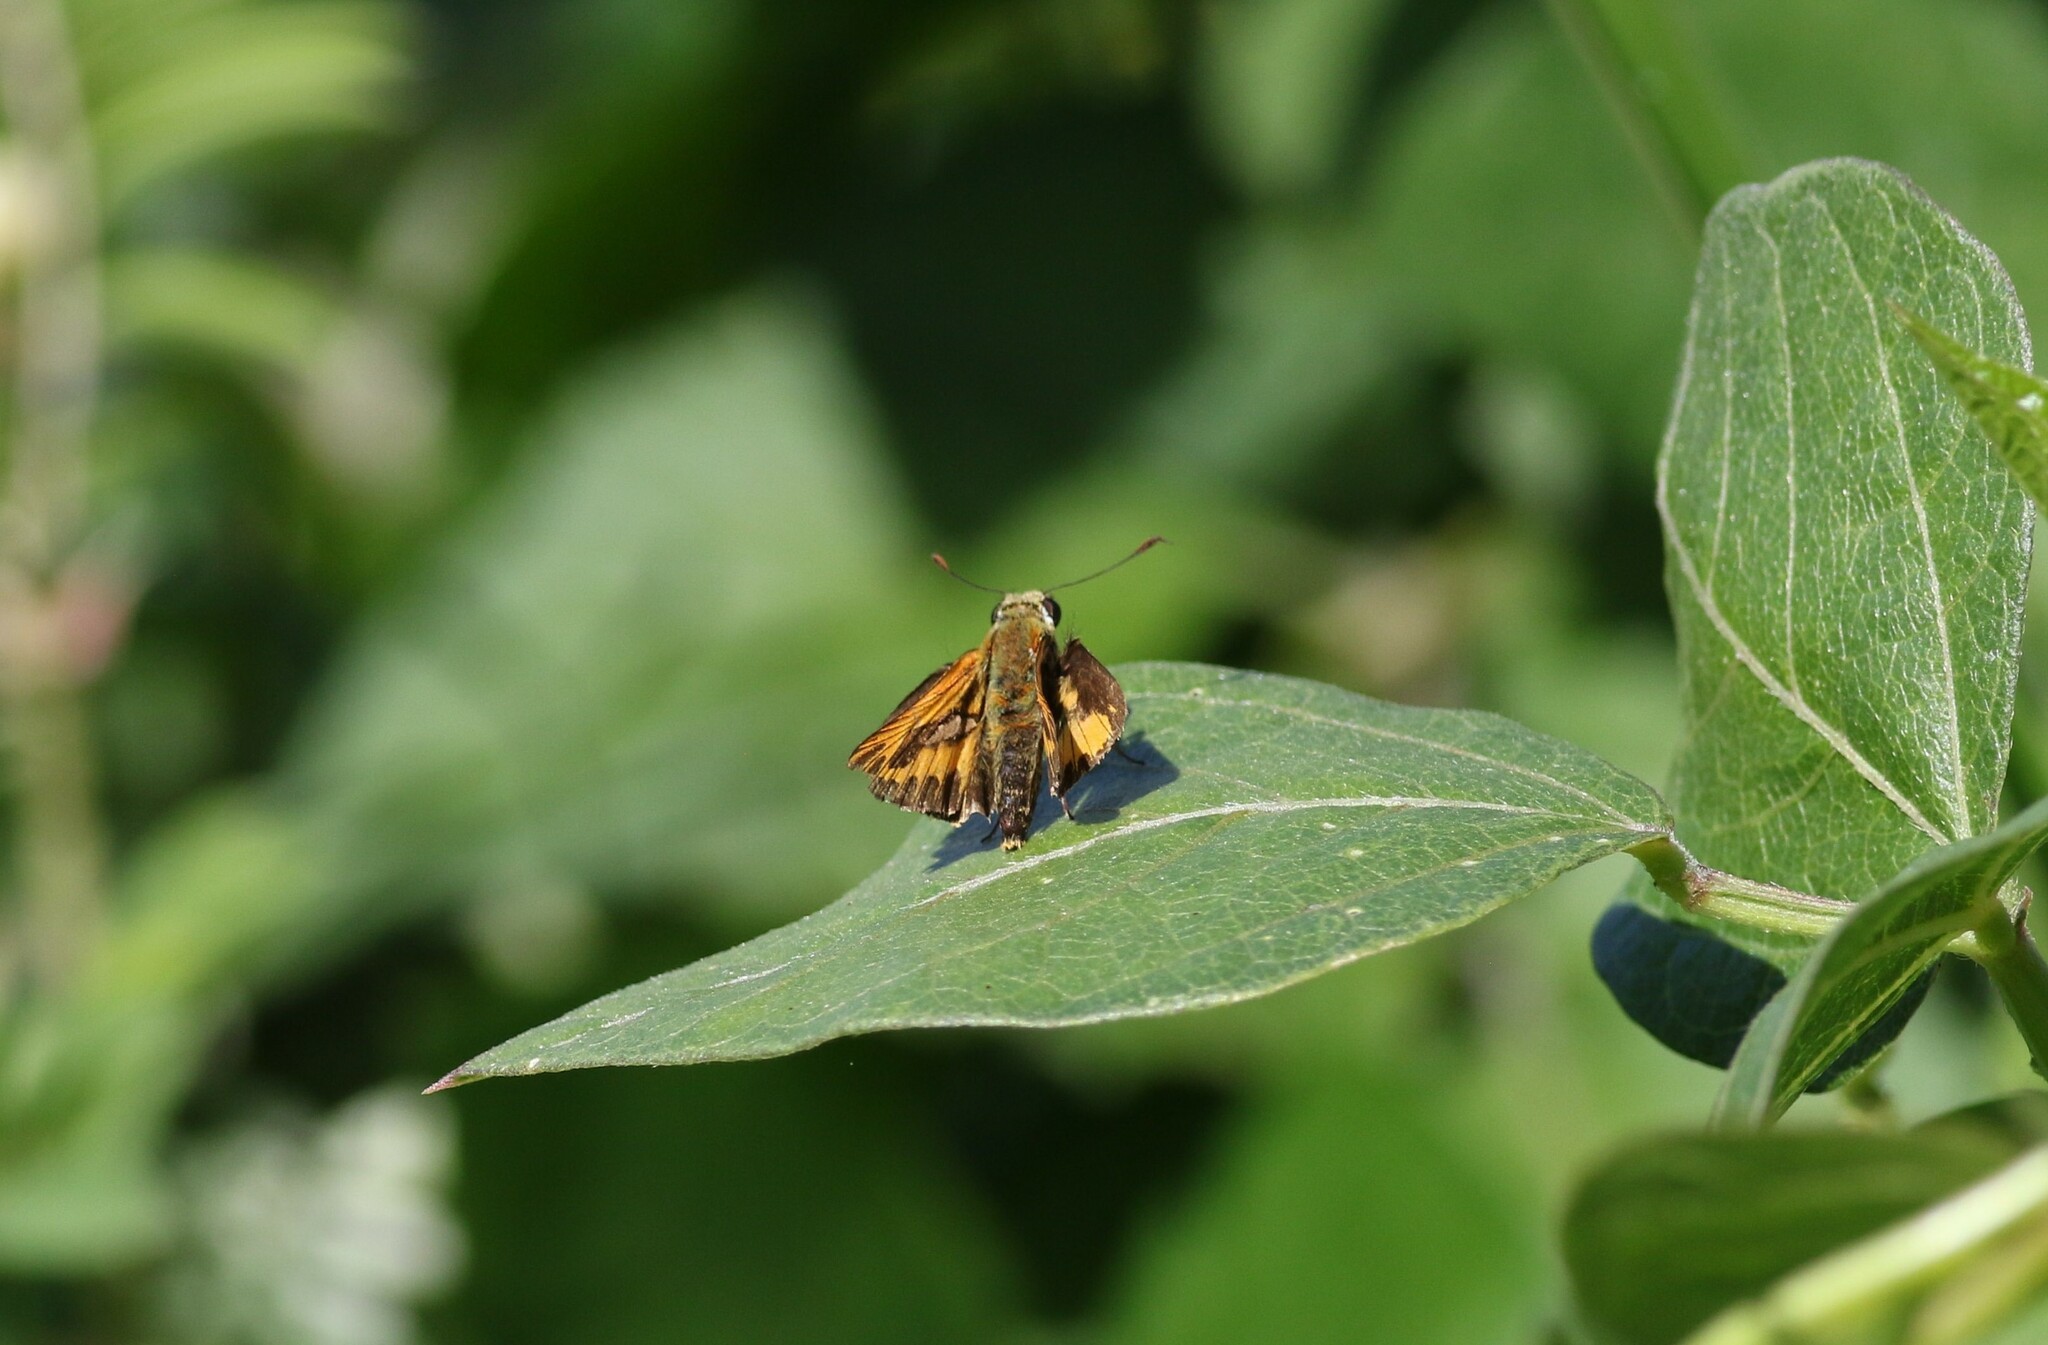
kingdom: Animalia
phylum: Arthropoda
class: Insecta
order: Lepidoptera
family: Hesperiidae
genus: Telicota
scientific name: Telicota colon
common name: Pale palm dart
